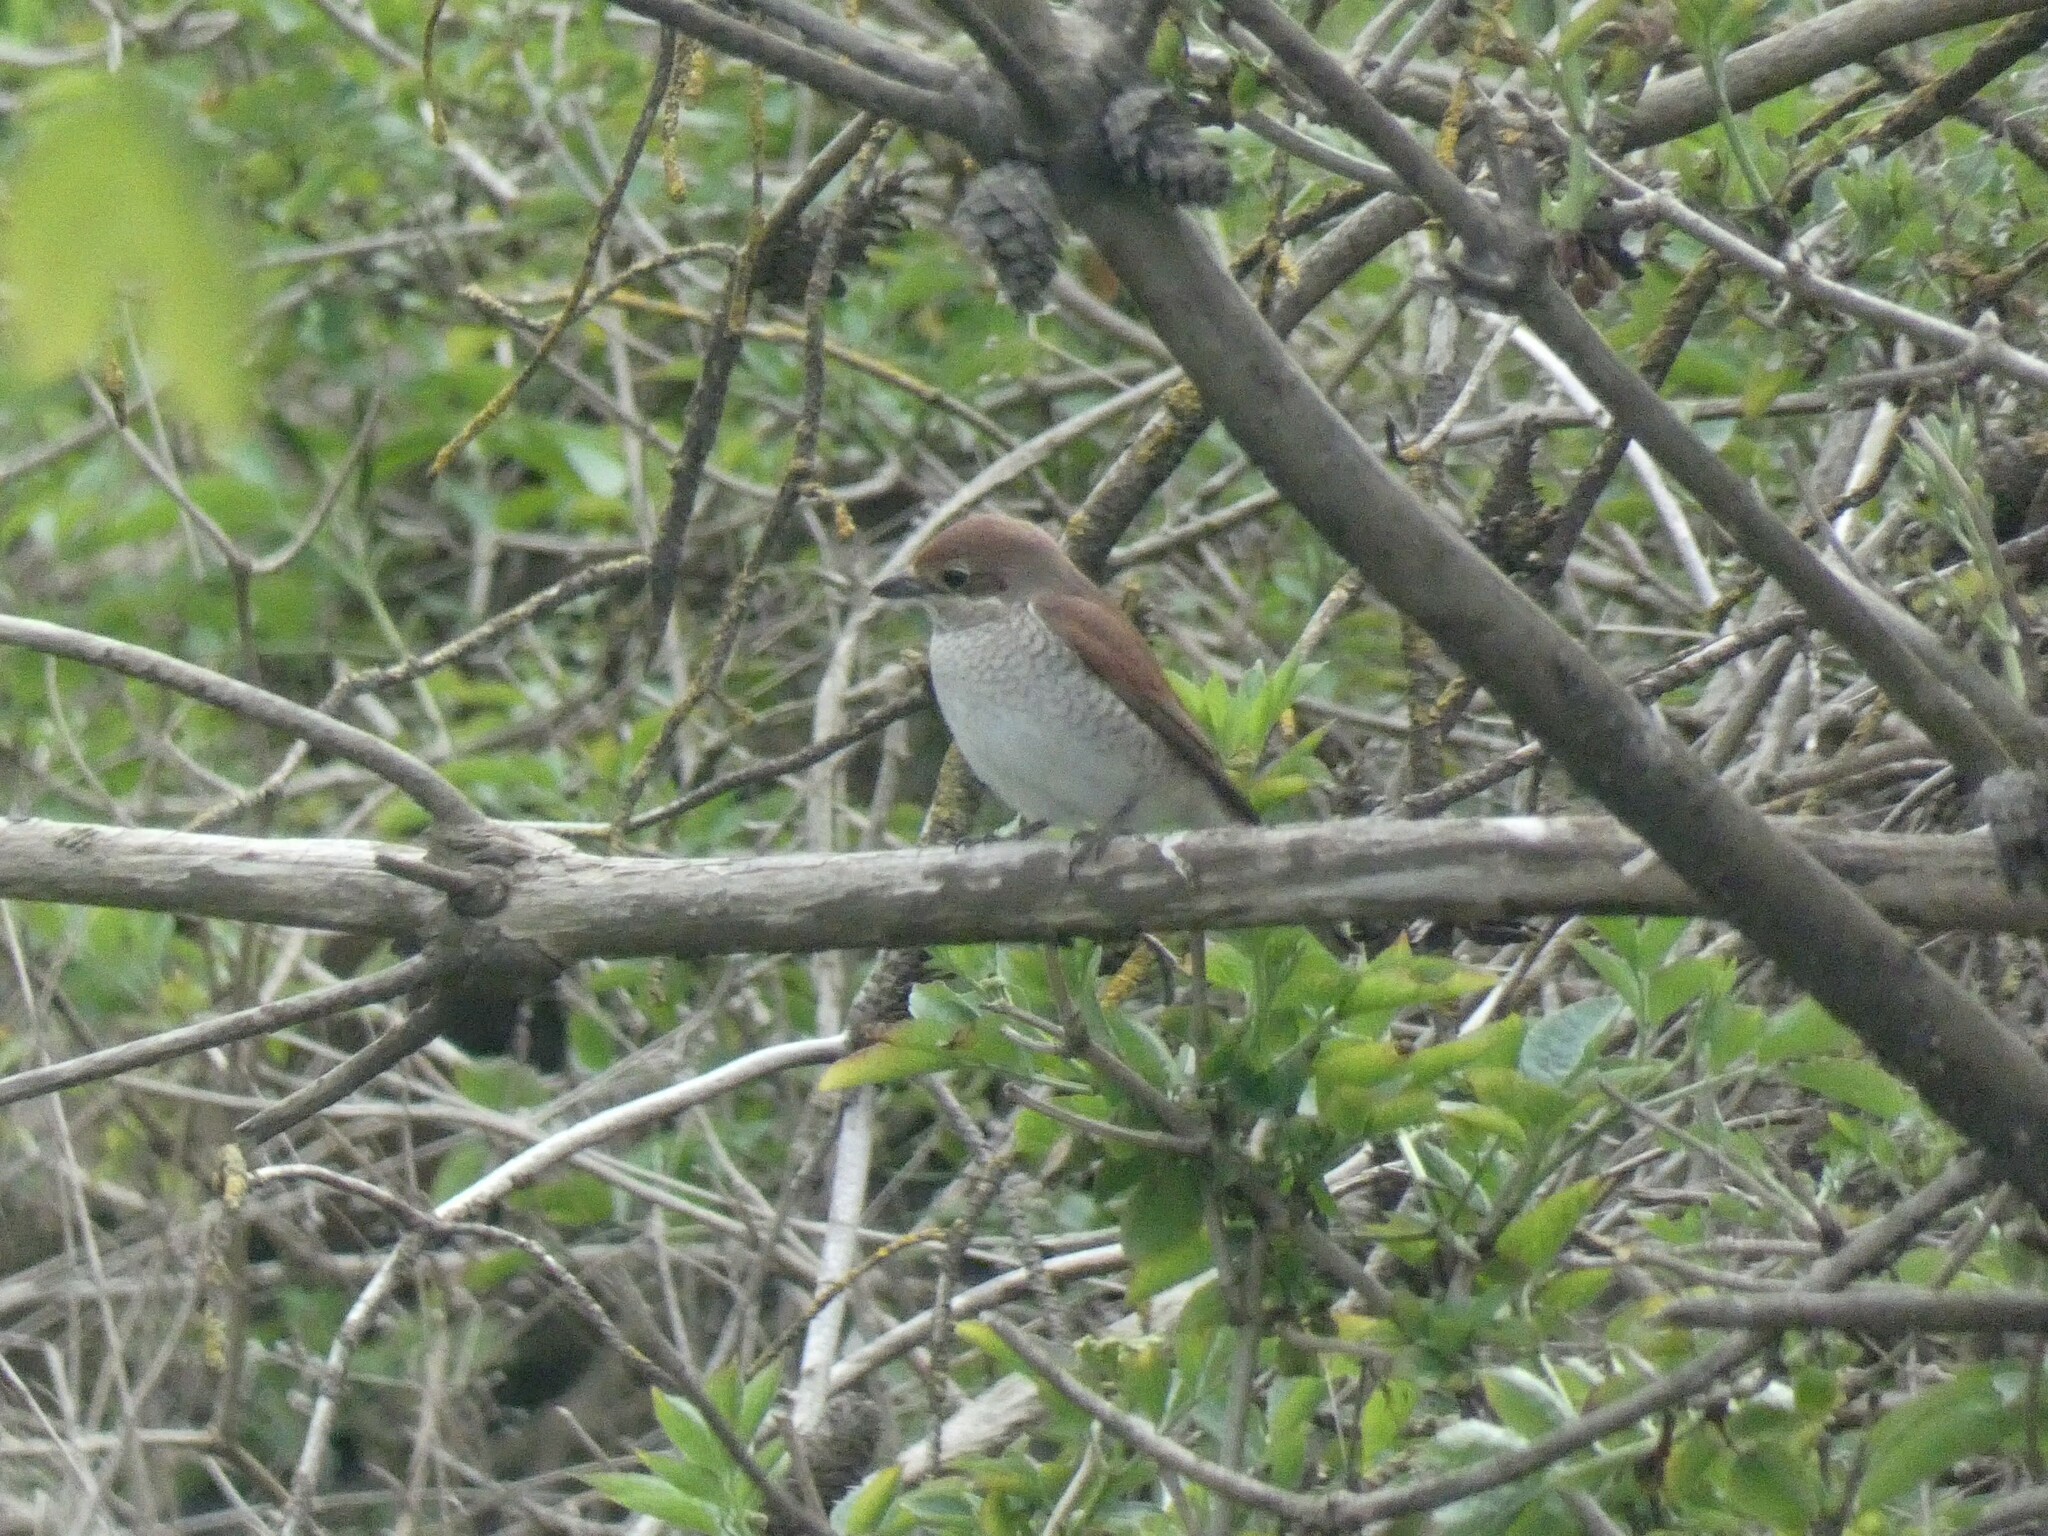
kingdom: Animalia
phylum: Chordata
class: Aves
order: Passeriformes
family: Laniidae
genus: Lanius
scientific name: Lanius collurio
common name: Red-backed shrike
